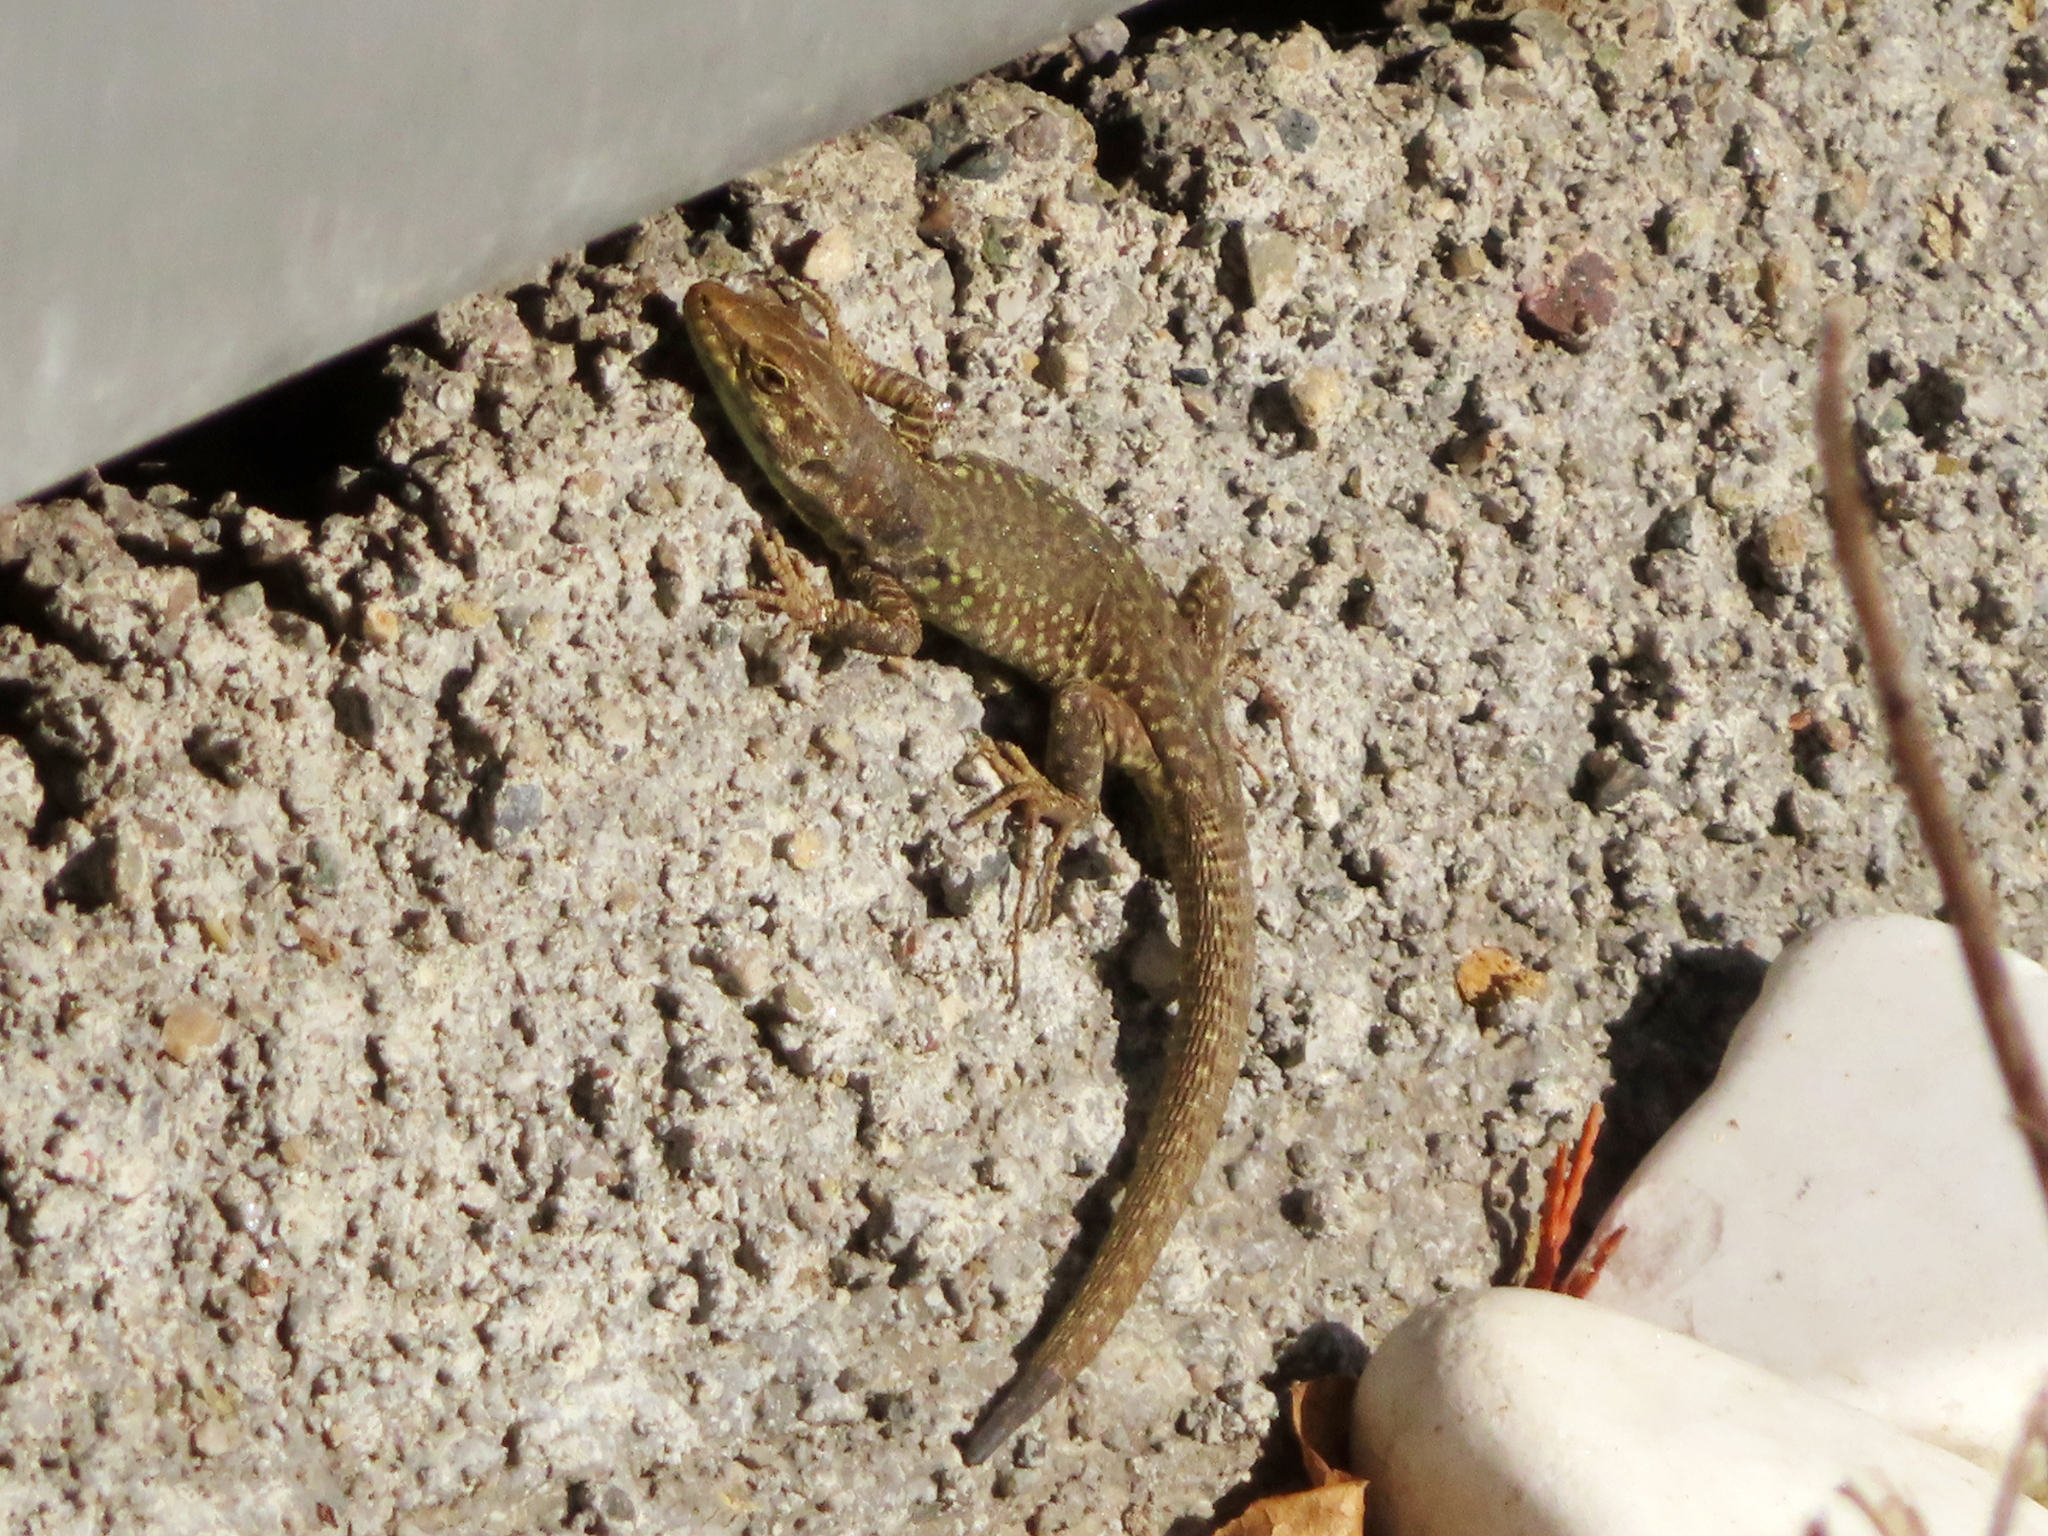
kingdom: Animalia
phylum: Chordata
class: Squamata
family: Lacertidae
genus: Podarcis
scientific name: Podarcis siculus
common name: Italian wall lizard
